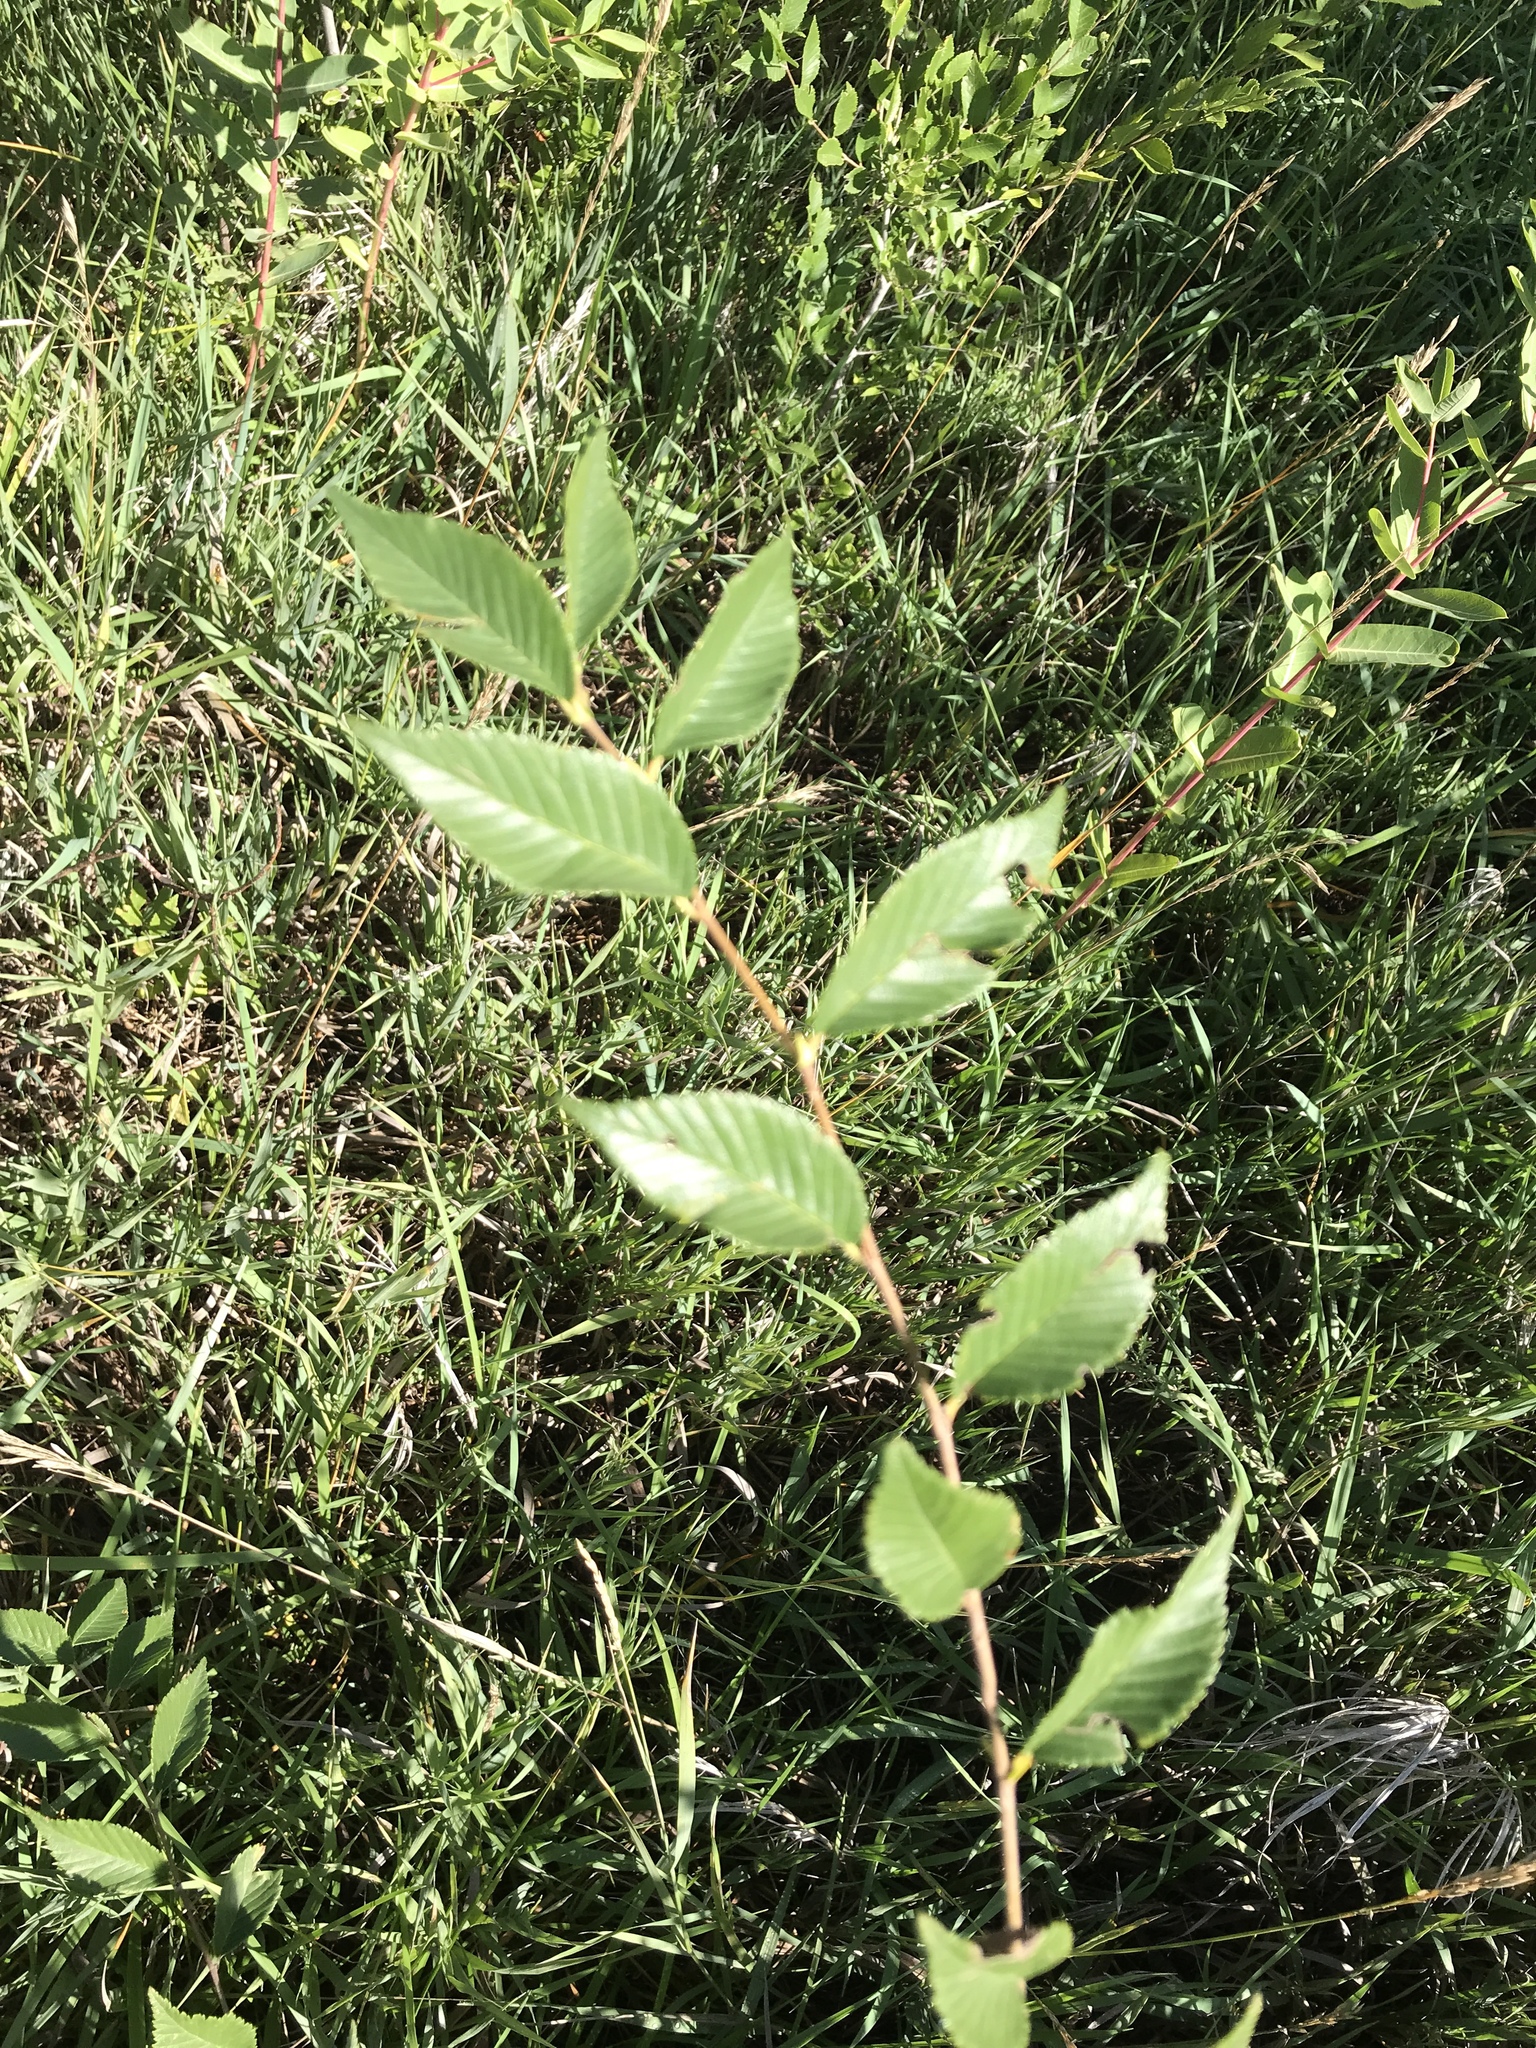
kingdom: Plantae
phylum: Tracheophyta
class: Magnoliopsida
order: Rosales
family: Ulmaceae
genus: Ulmus
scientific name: Ulmus pumila
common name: Siberian elm
